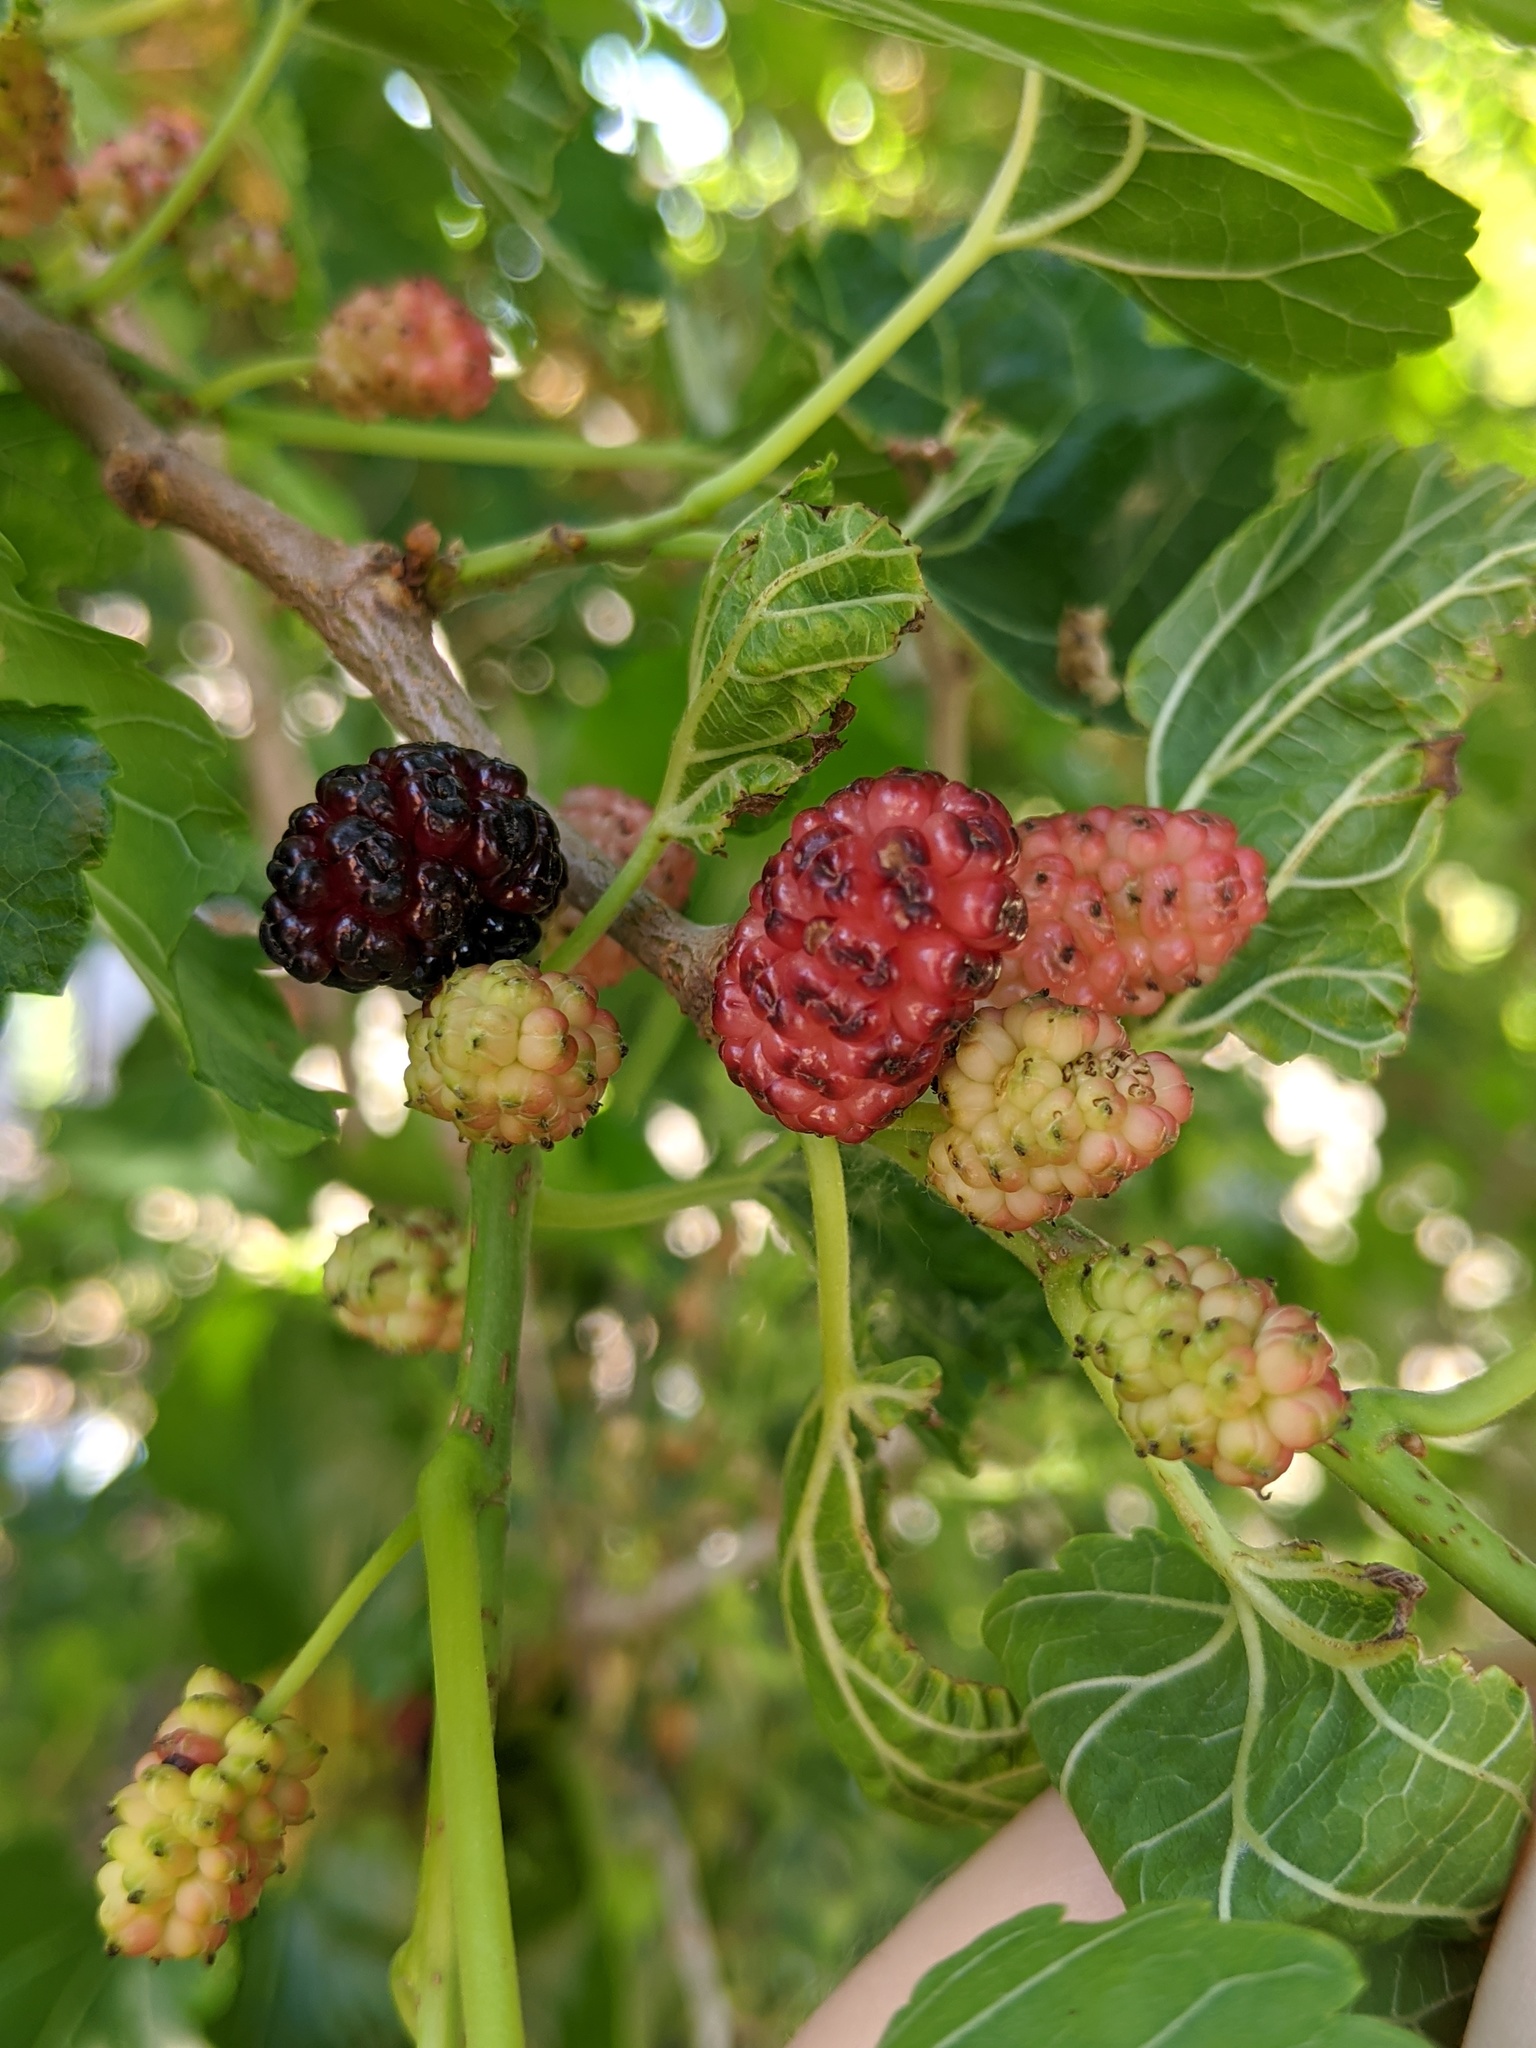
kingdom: Plantae
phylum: Tracheophyta
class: Magnoliopsida
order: Rosales
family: Moraceae
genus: Morus
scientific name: Morus alba
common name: White mulberry
